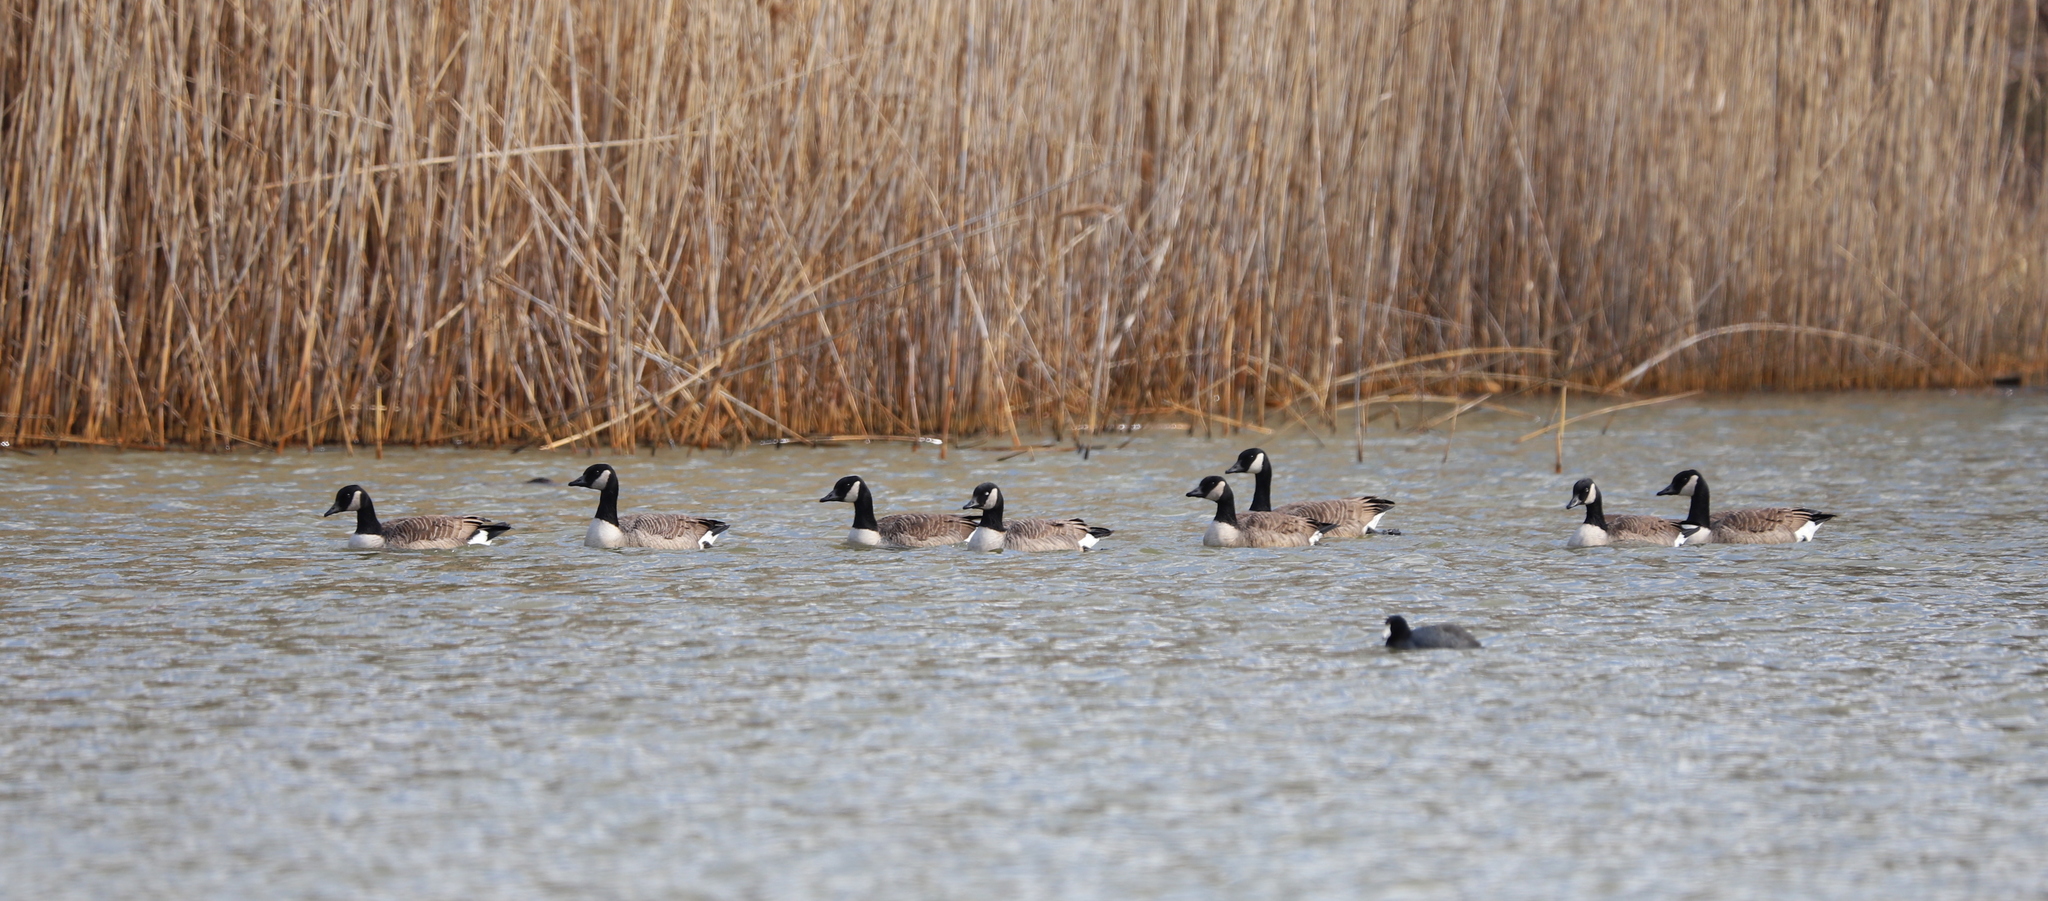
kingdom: Animalia
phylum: Chordata
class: Aves
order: Anseriformes
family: Anatidae
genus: Branta
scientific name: Branta canadensis
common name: Canada goose
